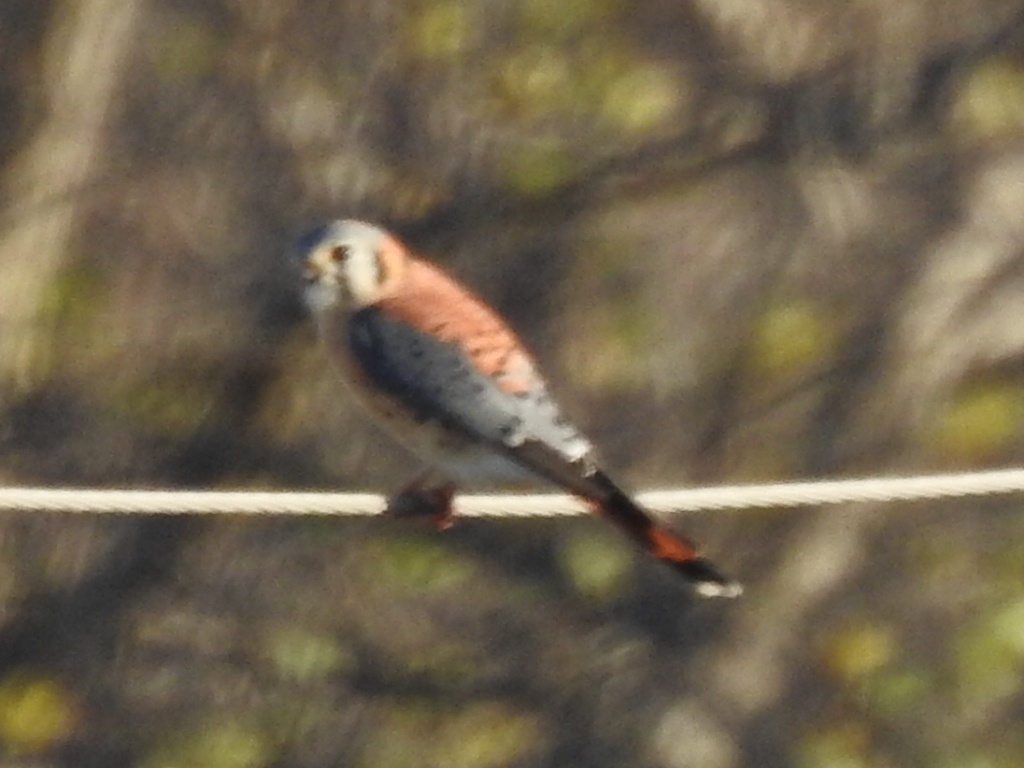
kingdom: Animalia
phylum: Chordata
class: Aves
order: Falconiformes
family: Falconidae
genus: Falco
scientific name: Falco sparverius
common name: American kestrel
